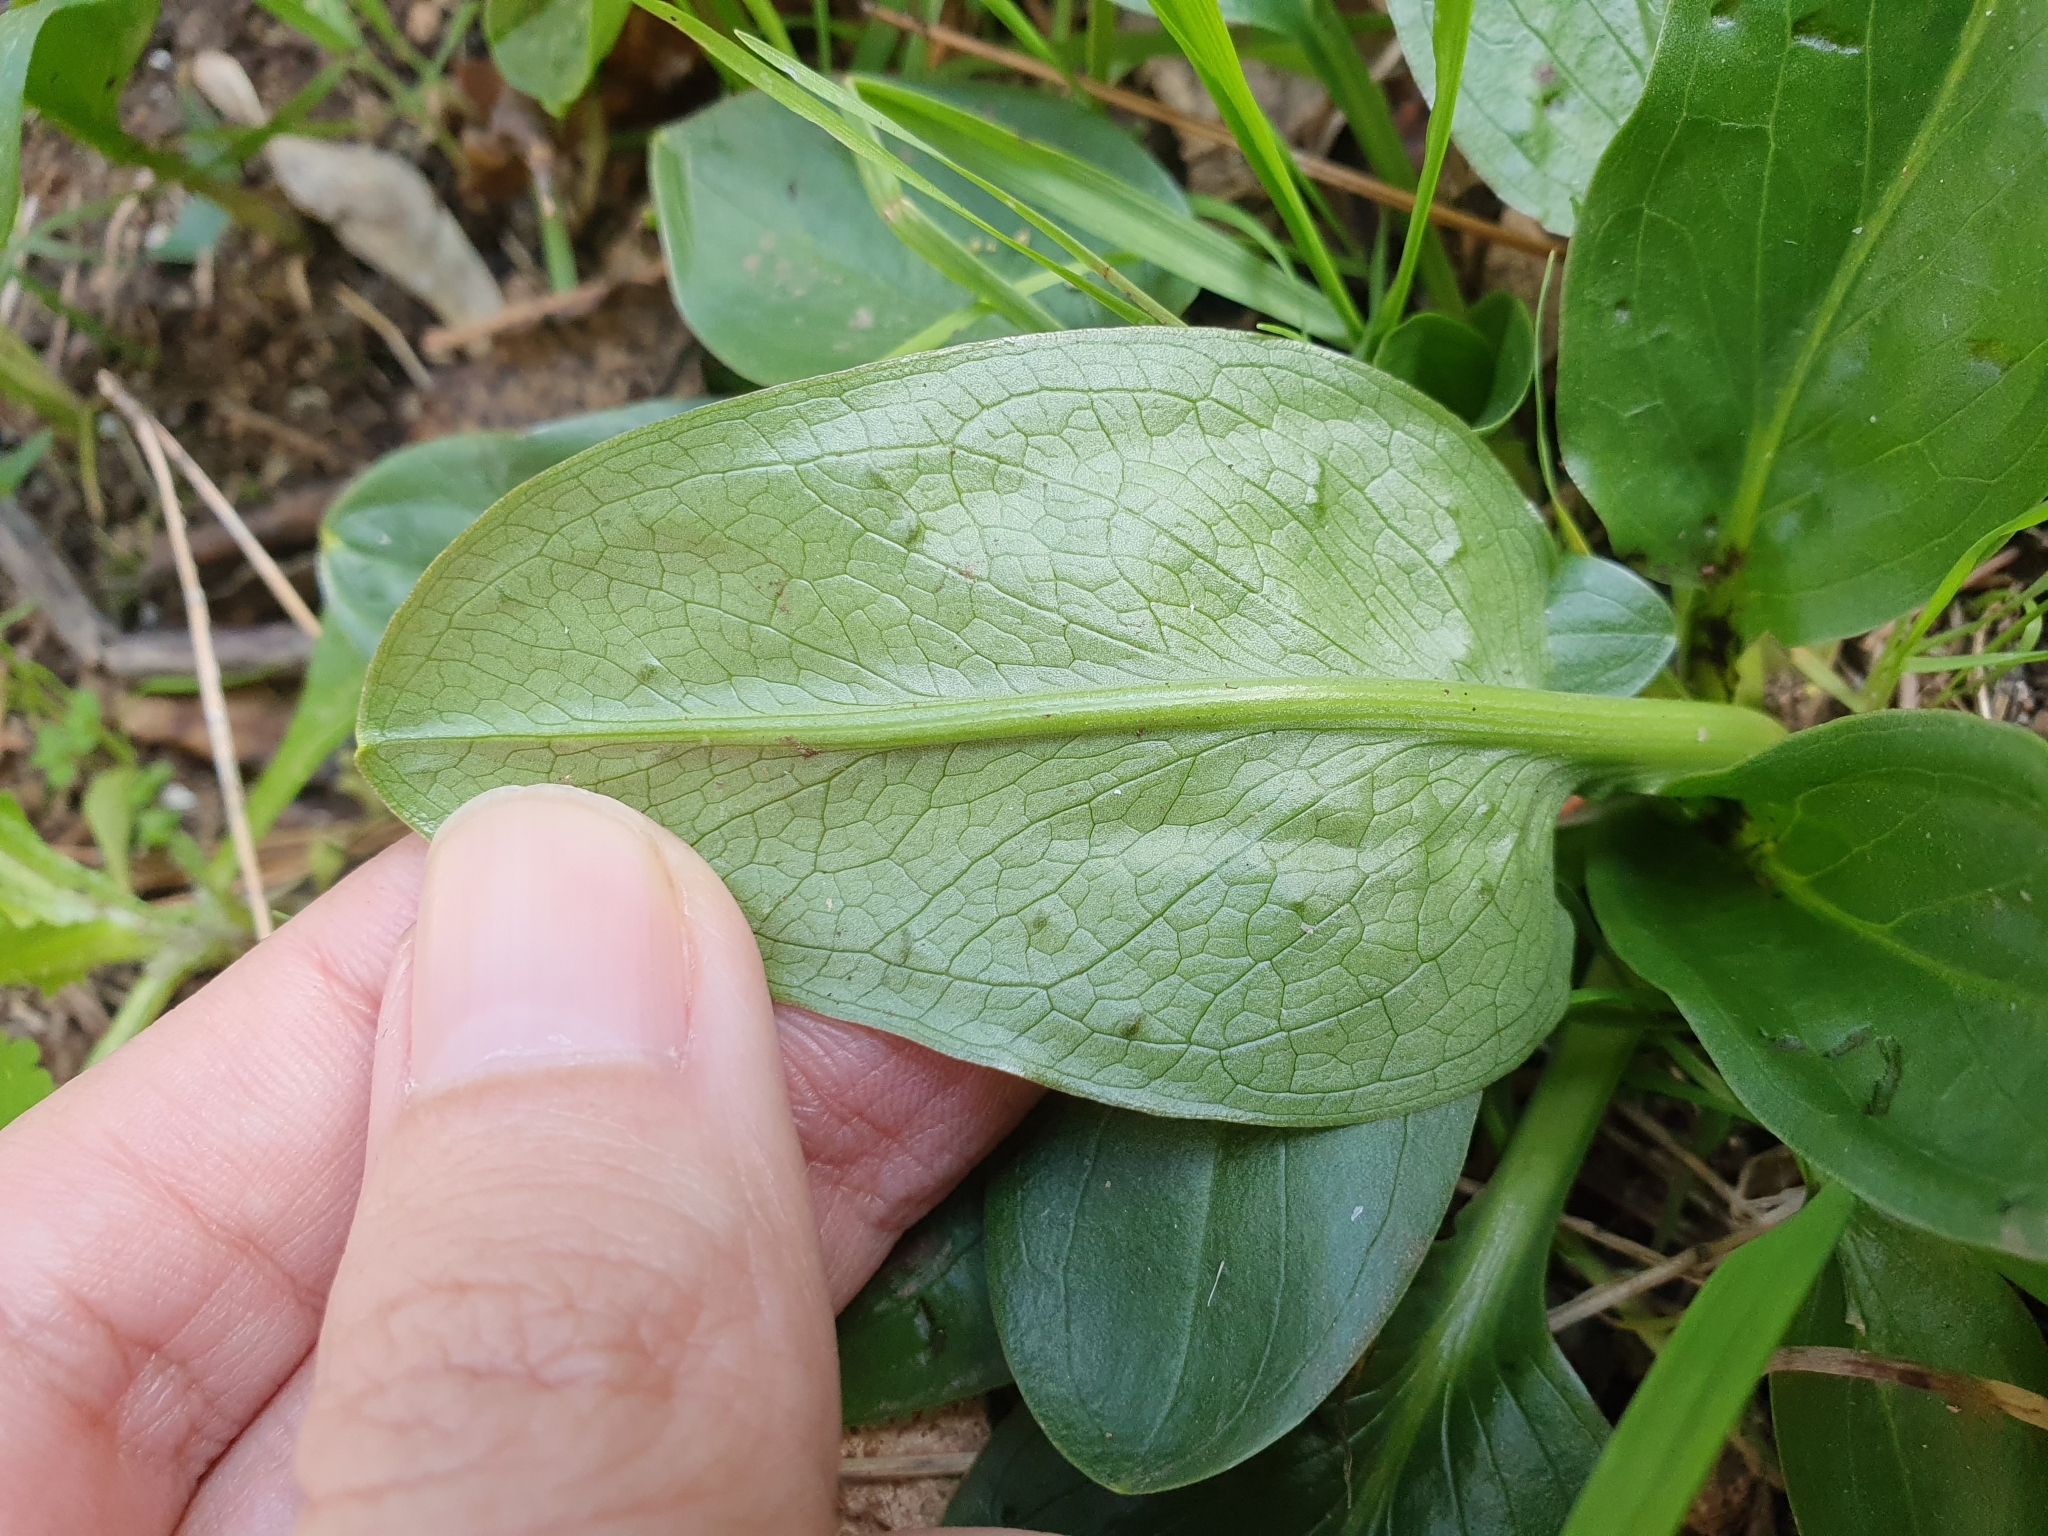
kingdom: Plantae
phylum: Tracheophyta
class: Liliopsida
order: Alismatales
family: Araceae
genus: Biarum
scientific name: Biarum dispar
